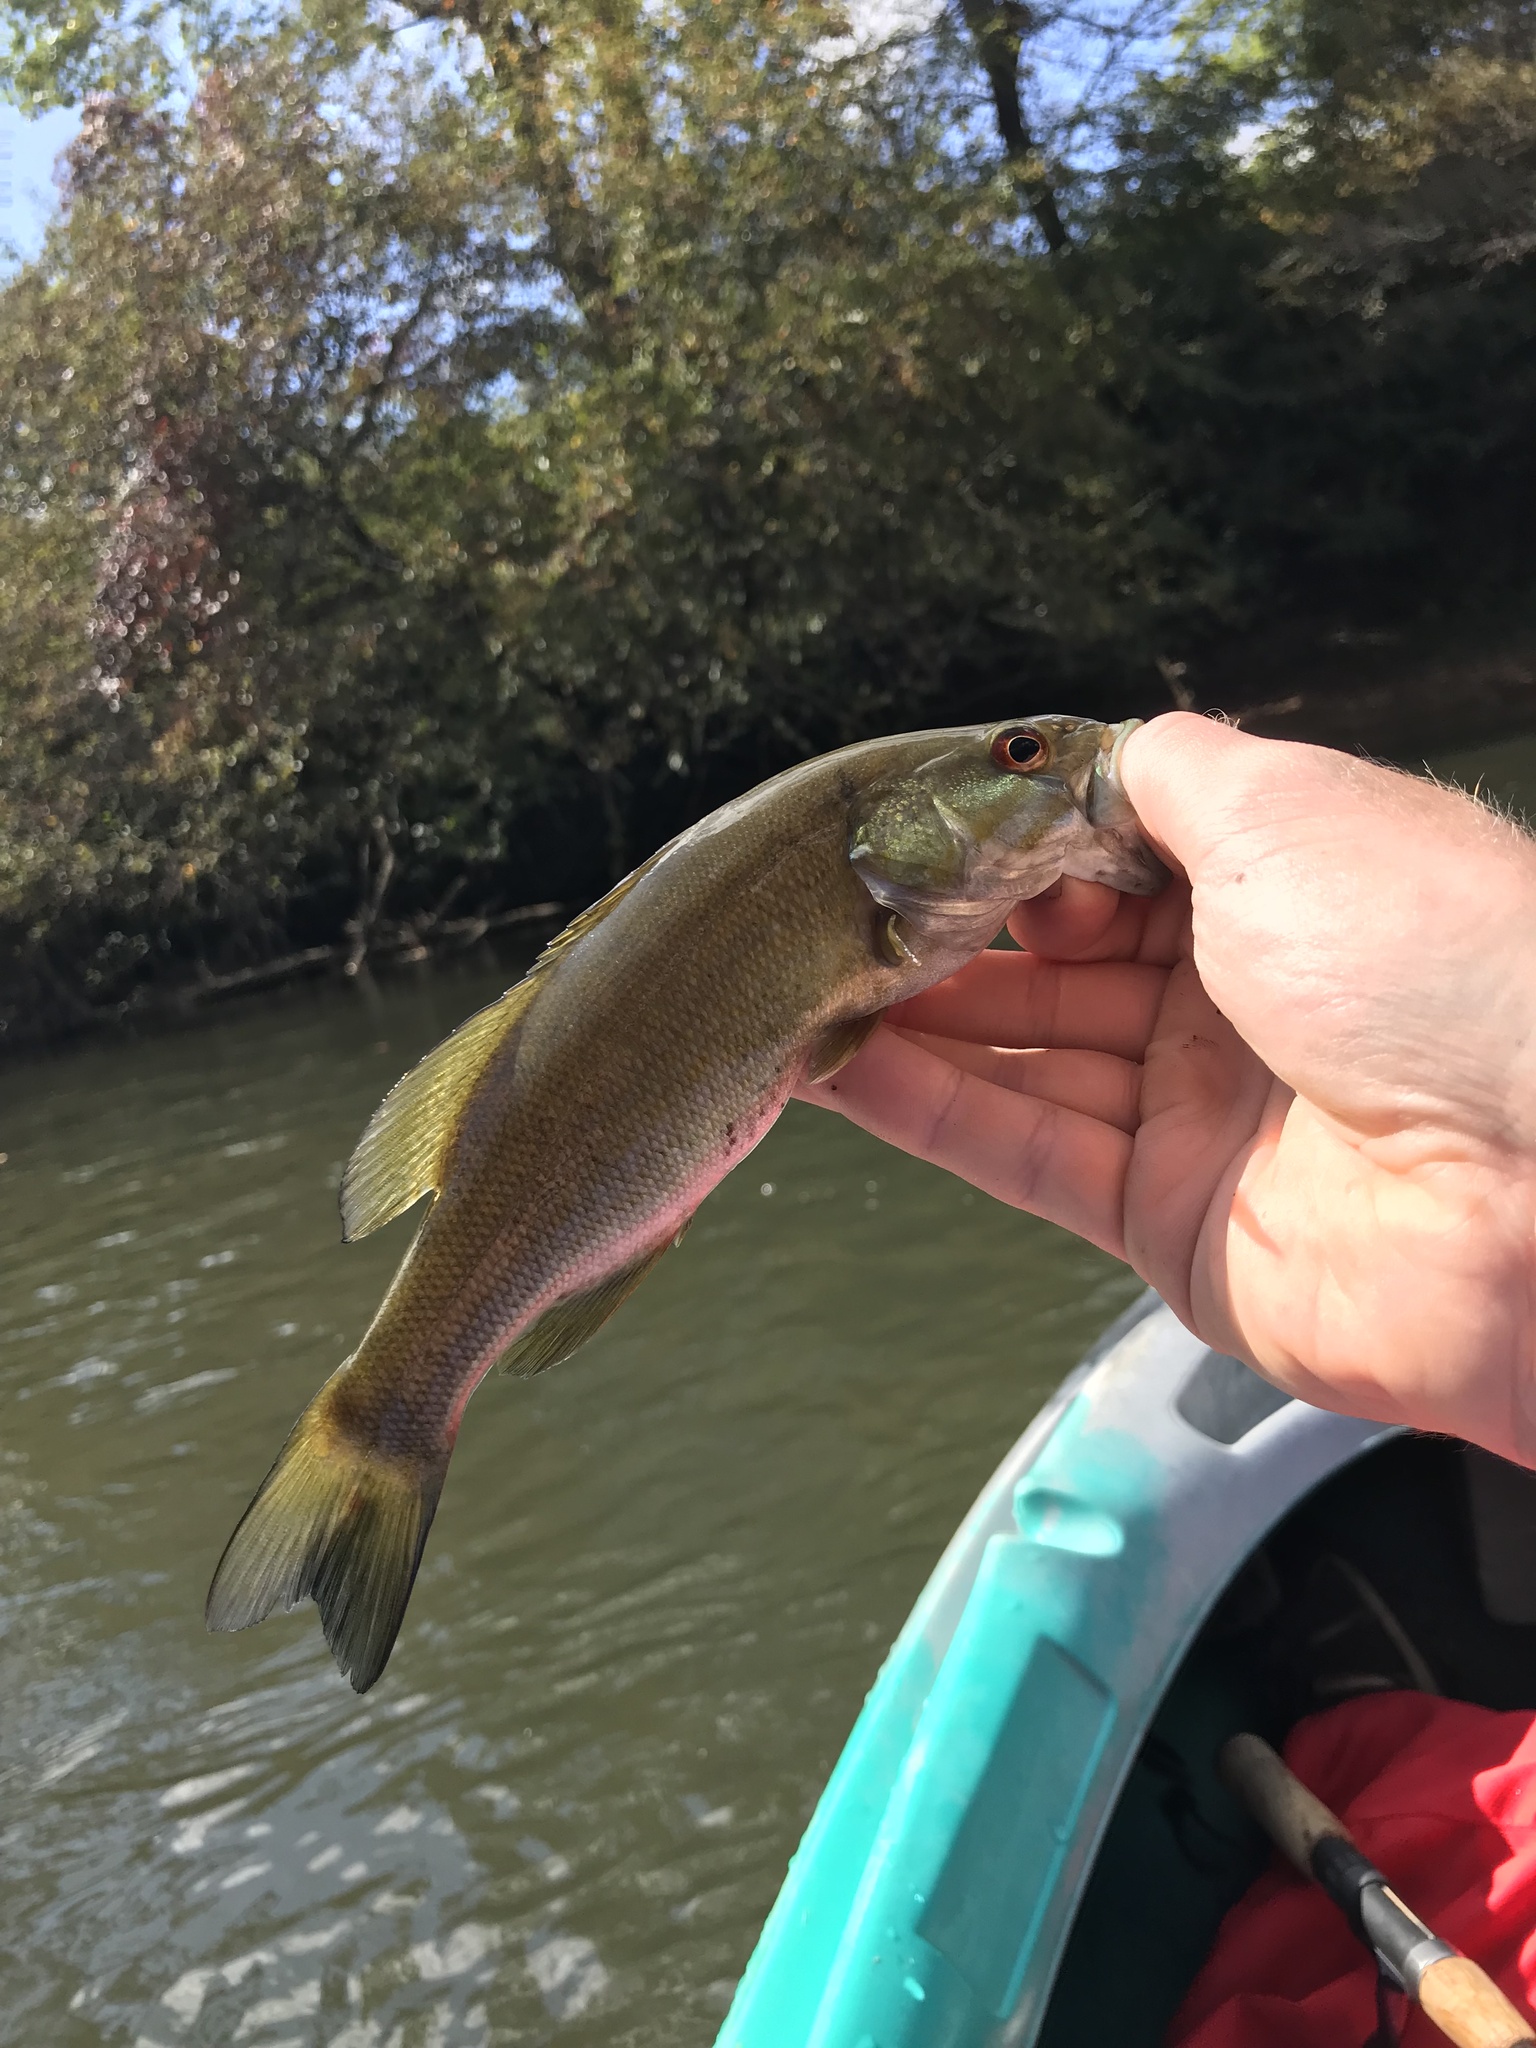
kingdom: Animalia
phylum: Chordata
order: Perciformes
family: Centrarchidae
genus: Micropterus
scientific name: Micropterus dolomieu
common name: Smallmouth bass
